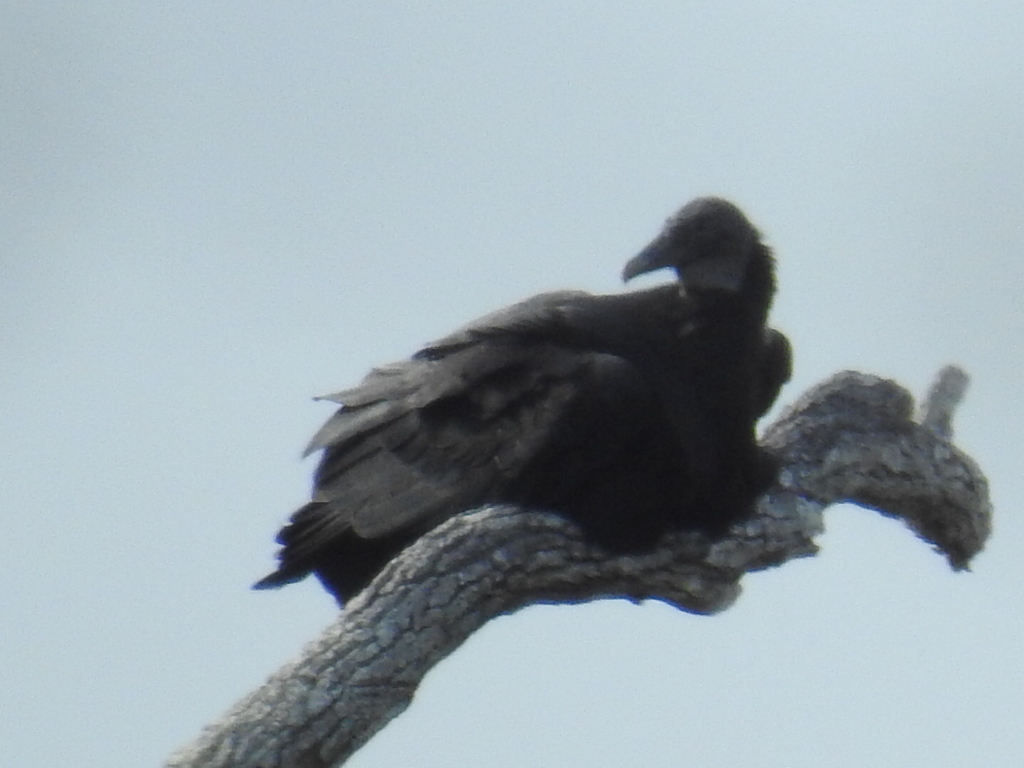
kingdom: Animalia
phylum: Chordata
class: Aves
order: Accipitriformes
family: Cathartidae
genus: Coragyps
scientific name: Coragyps atratus
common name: Black vulture
